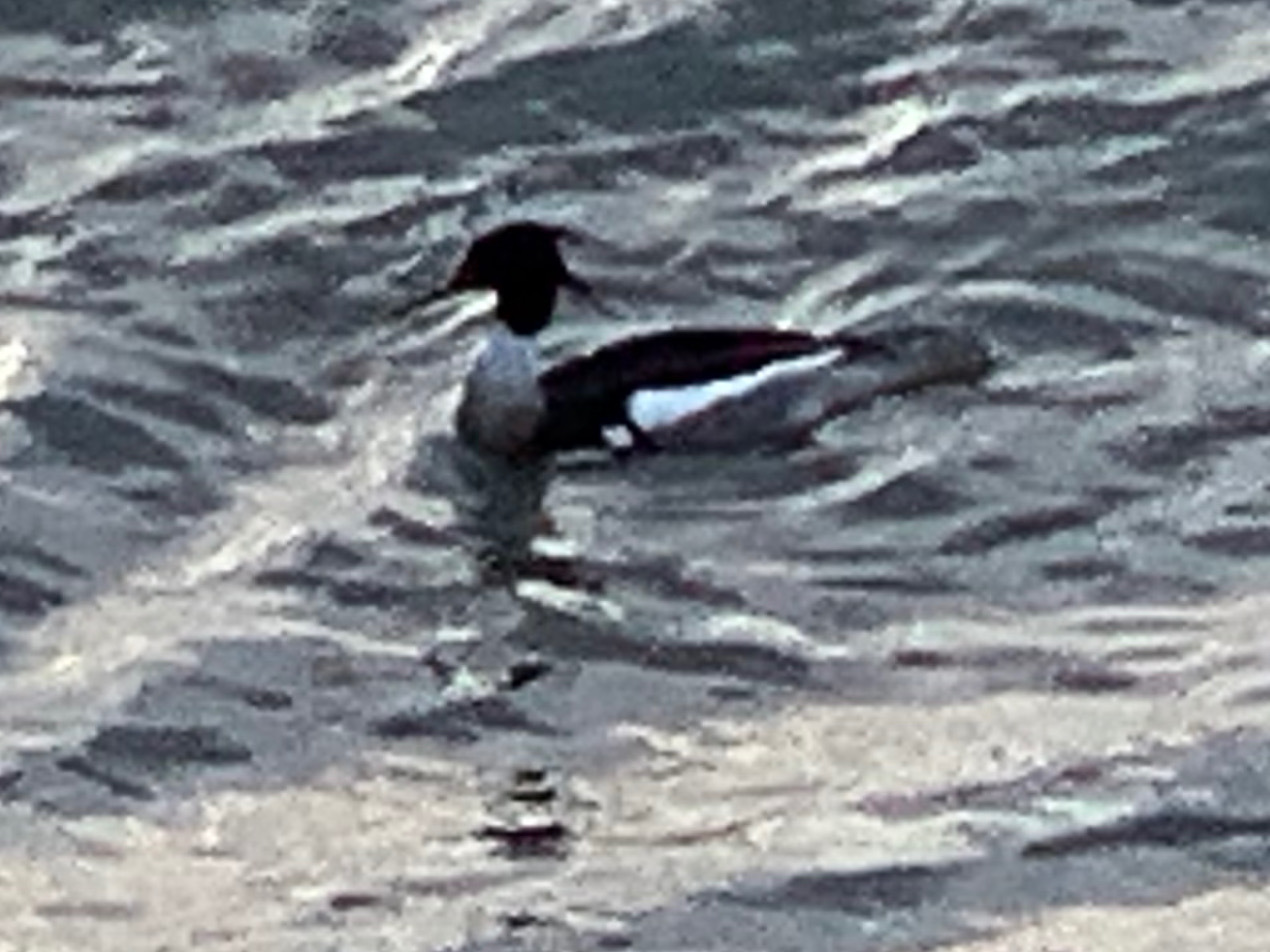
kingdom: Animalia
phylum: Chordata
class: Aves
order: Anseriformes
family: Anatidae
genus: Mergus
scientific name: Mergus serrator
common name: Red-breasted merganser
